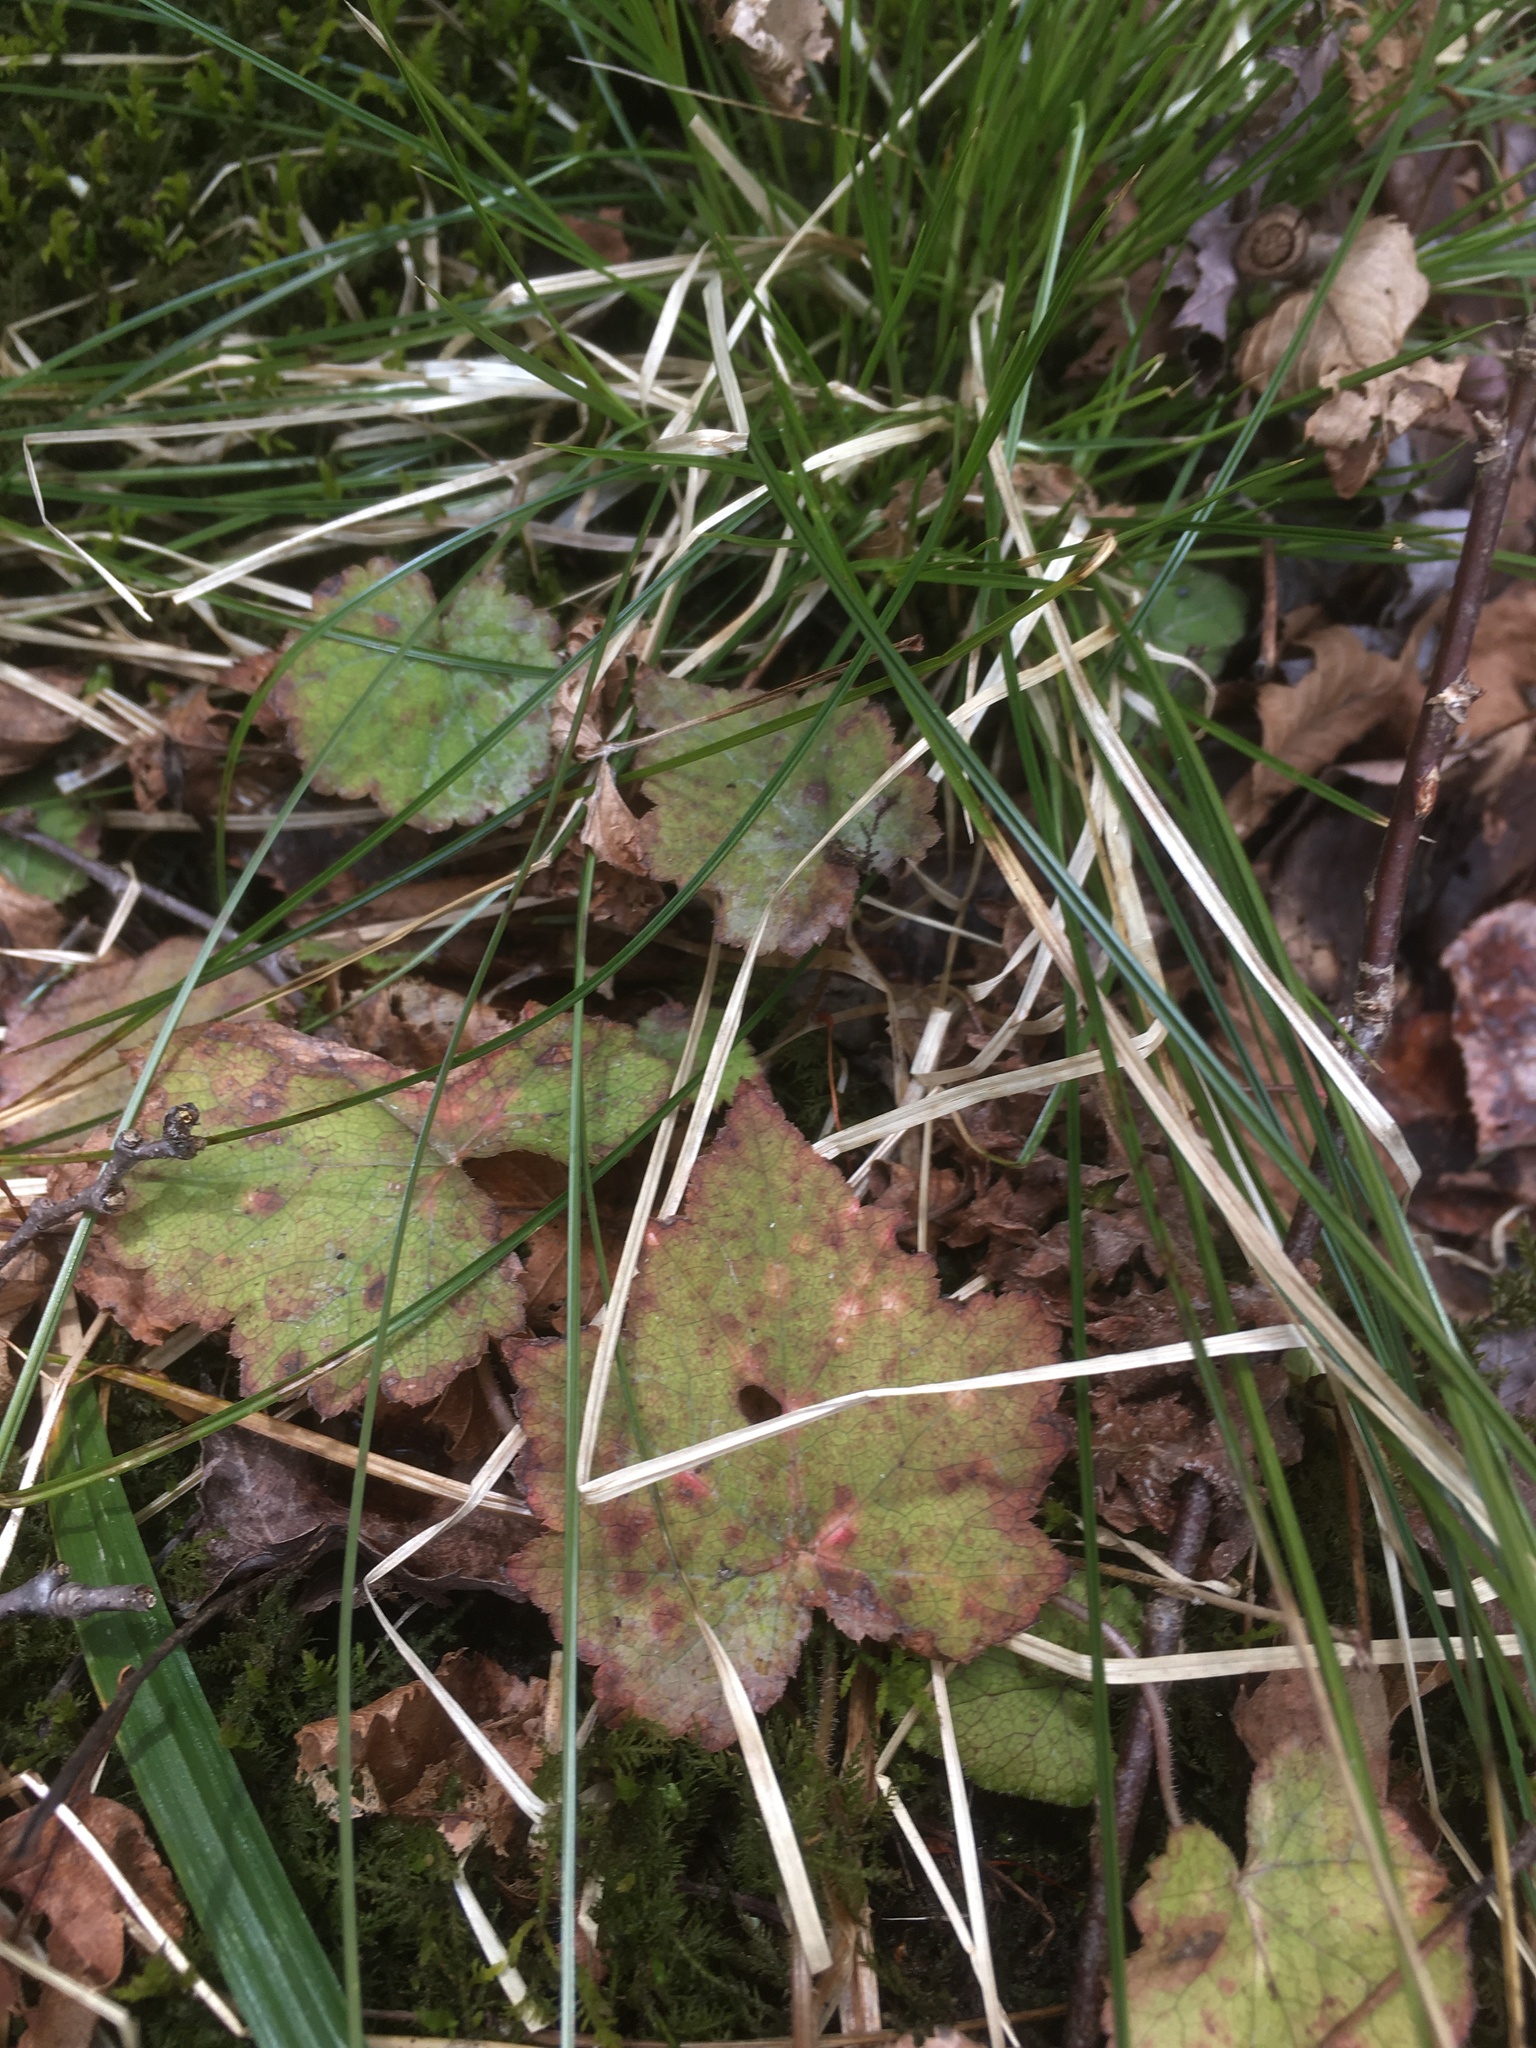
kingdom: Plantae
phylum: Tracheophyta
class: Magnoliopsida
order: Saxifragales
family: Saxifragaceae
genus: Tiarella
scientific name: Tiarella stolonifera
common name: Stoloniferous foamflower
